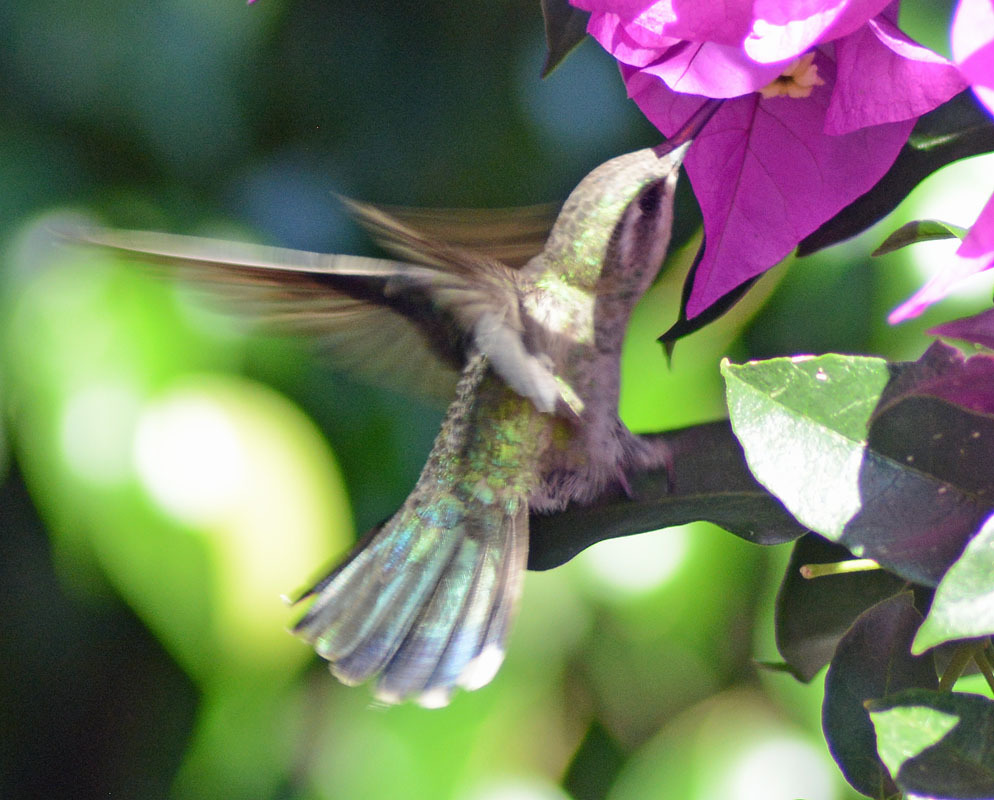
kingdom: Animalia
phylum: Chordata
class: Aves
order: Apodiformes
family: Trochilidae
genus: Cynanthus
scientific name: Cynanthus latirostris
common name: Broad-billed hummingbird
